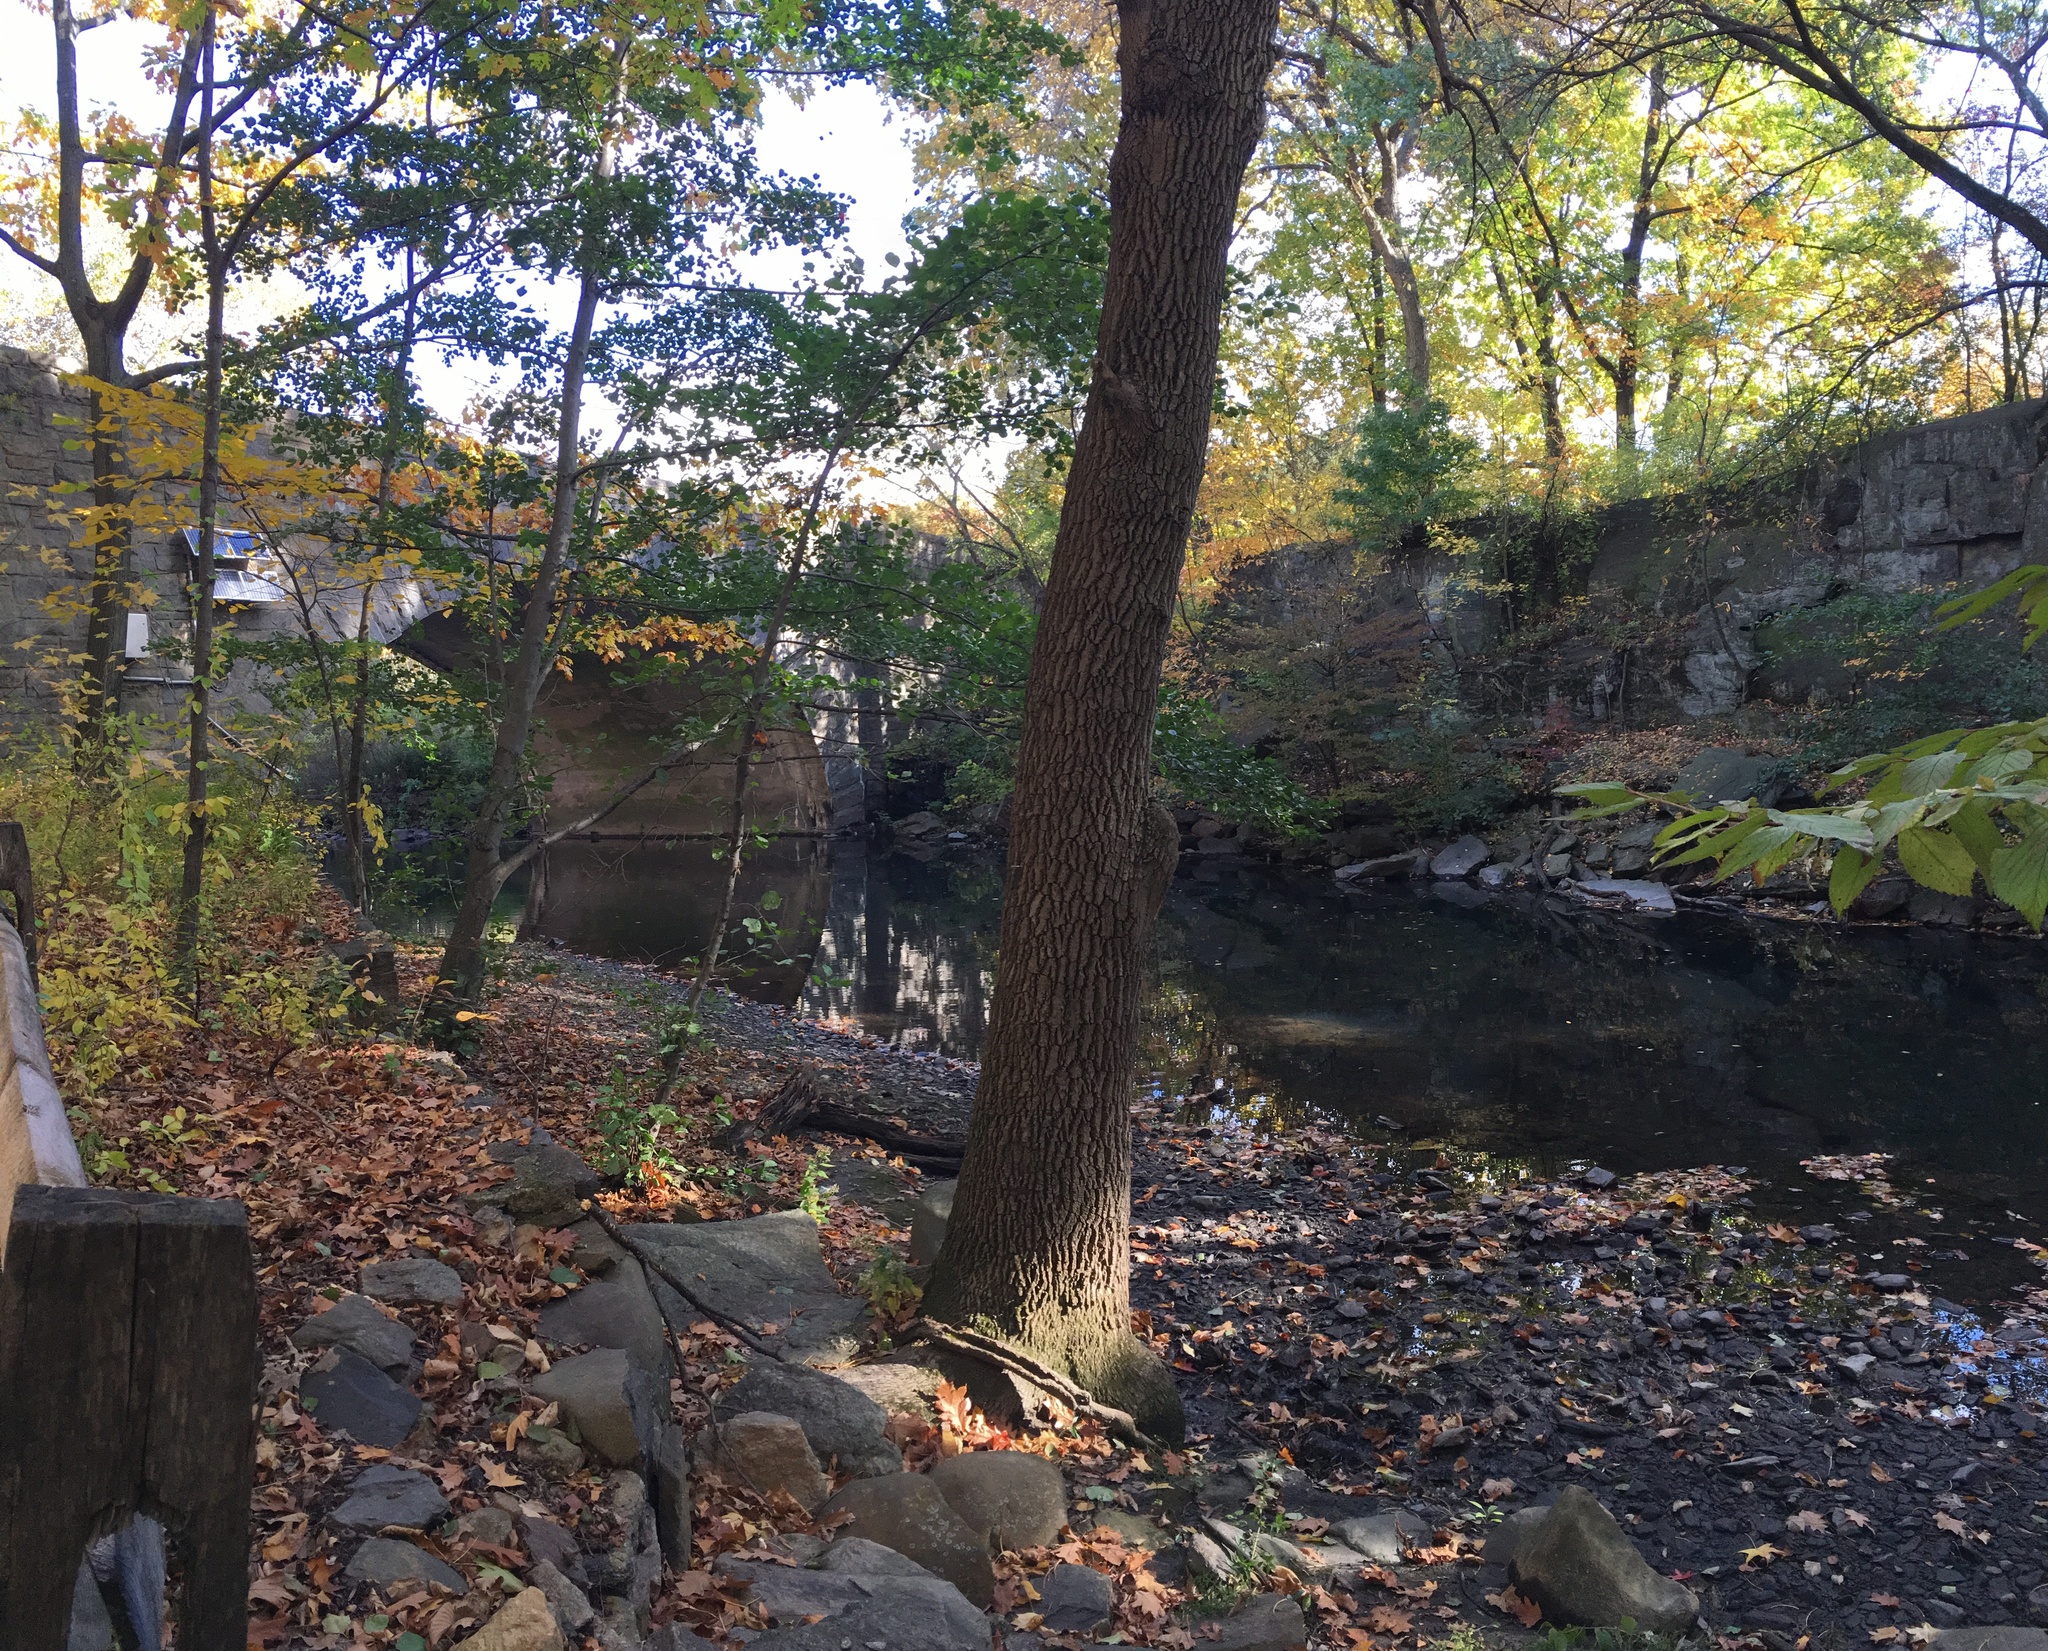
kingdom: Plantae
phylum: Tracheophyta
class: Magnoliopsida
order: Lamiales
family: Oleaceae
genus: Fraxinus
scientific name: Fraxinus profunda
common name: Pumpkin ash
